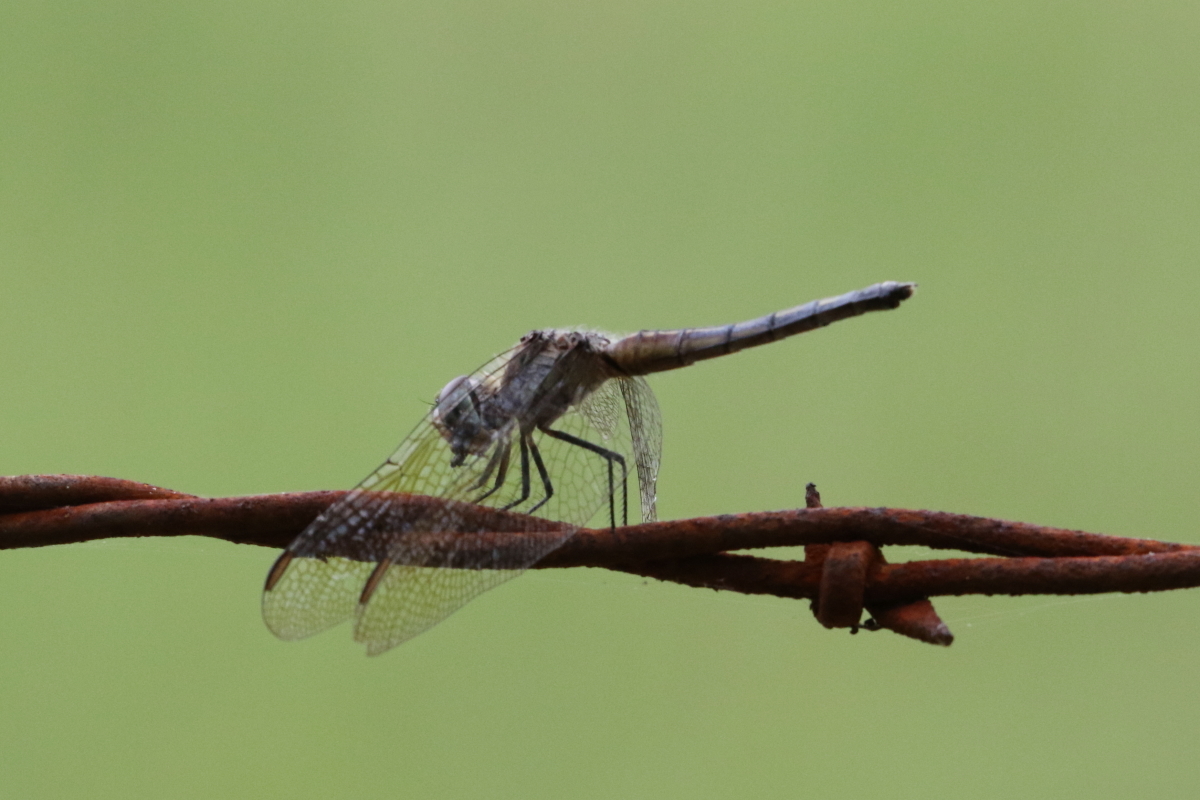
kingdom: Animalia
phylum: Arthropoda
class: Insecta
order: Odonata
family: Libellulidae
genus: Pachydiplax
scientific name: Pachydiplax longipennis
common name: Blue dasher
